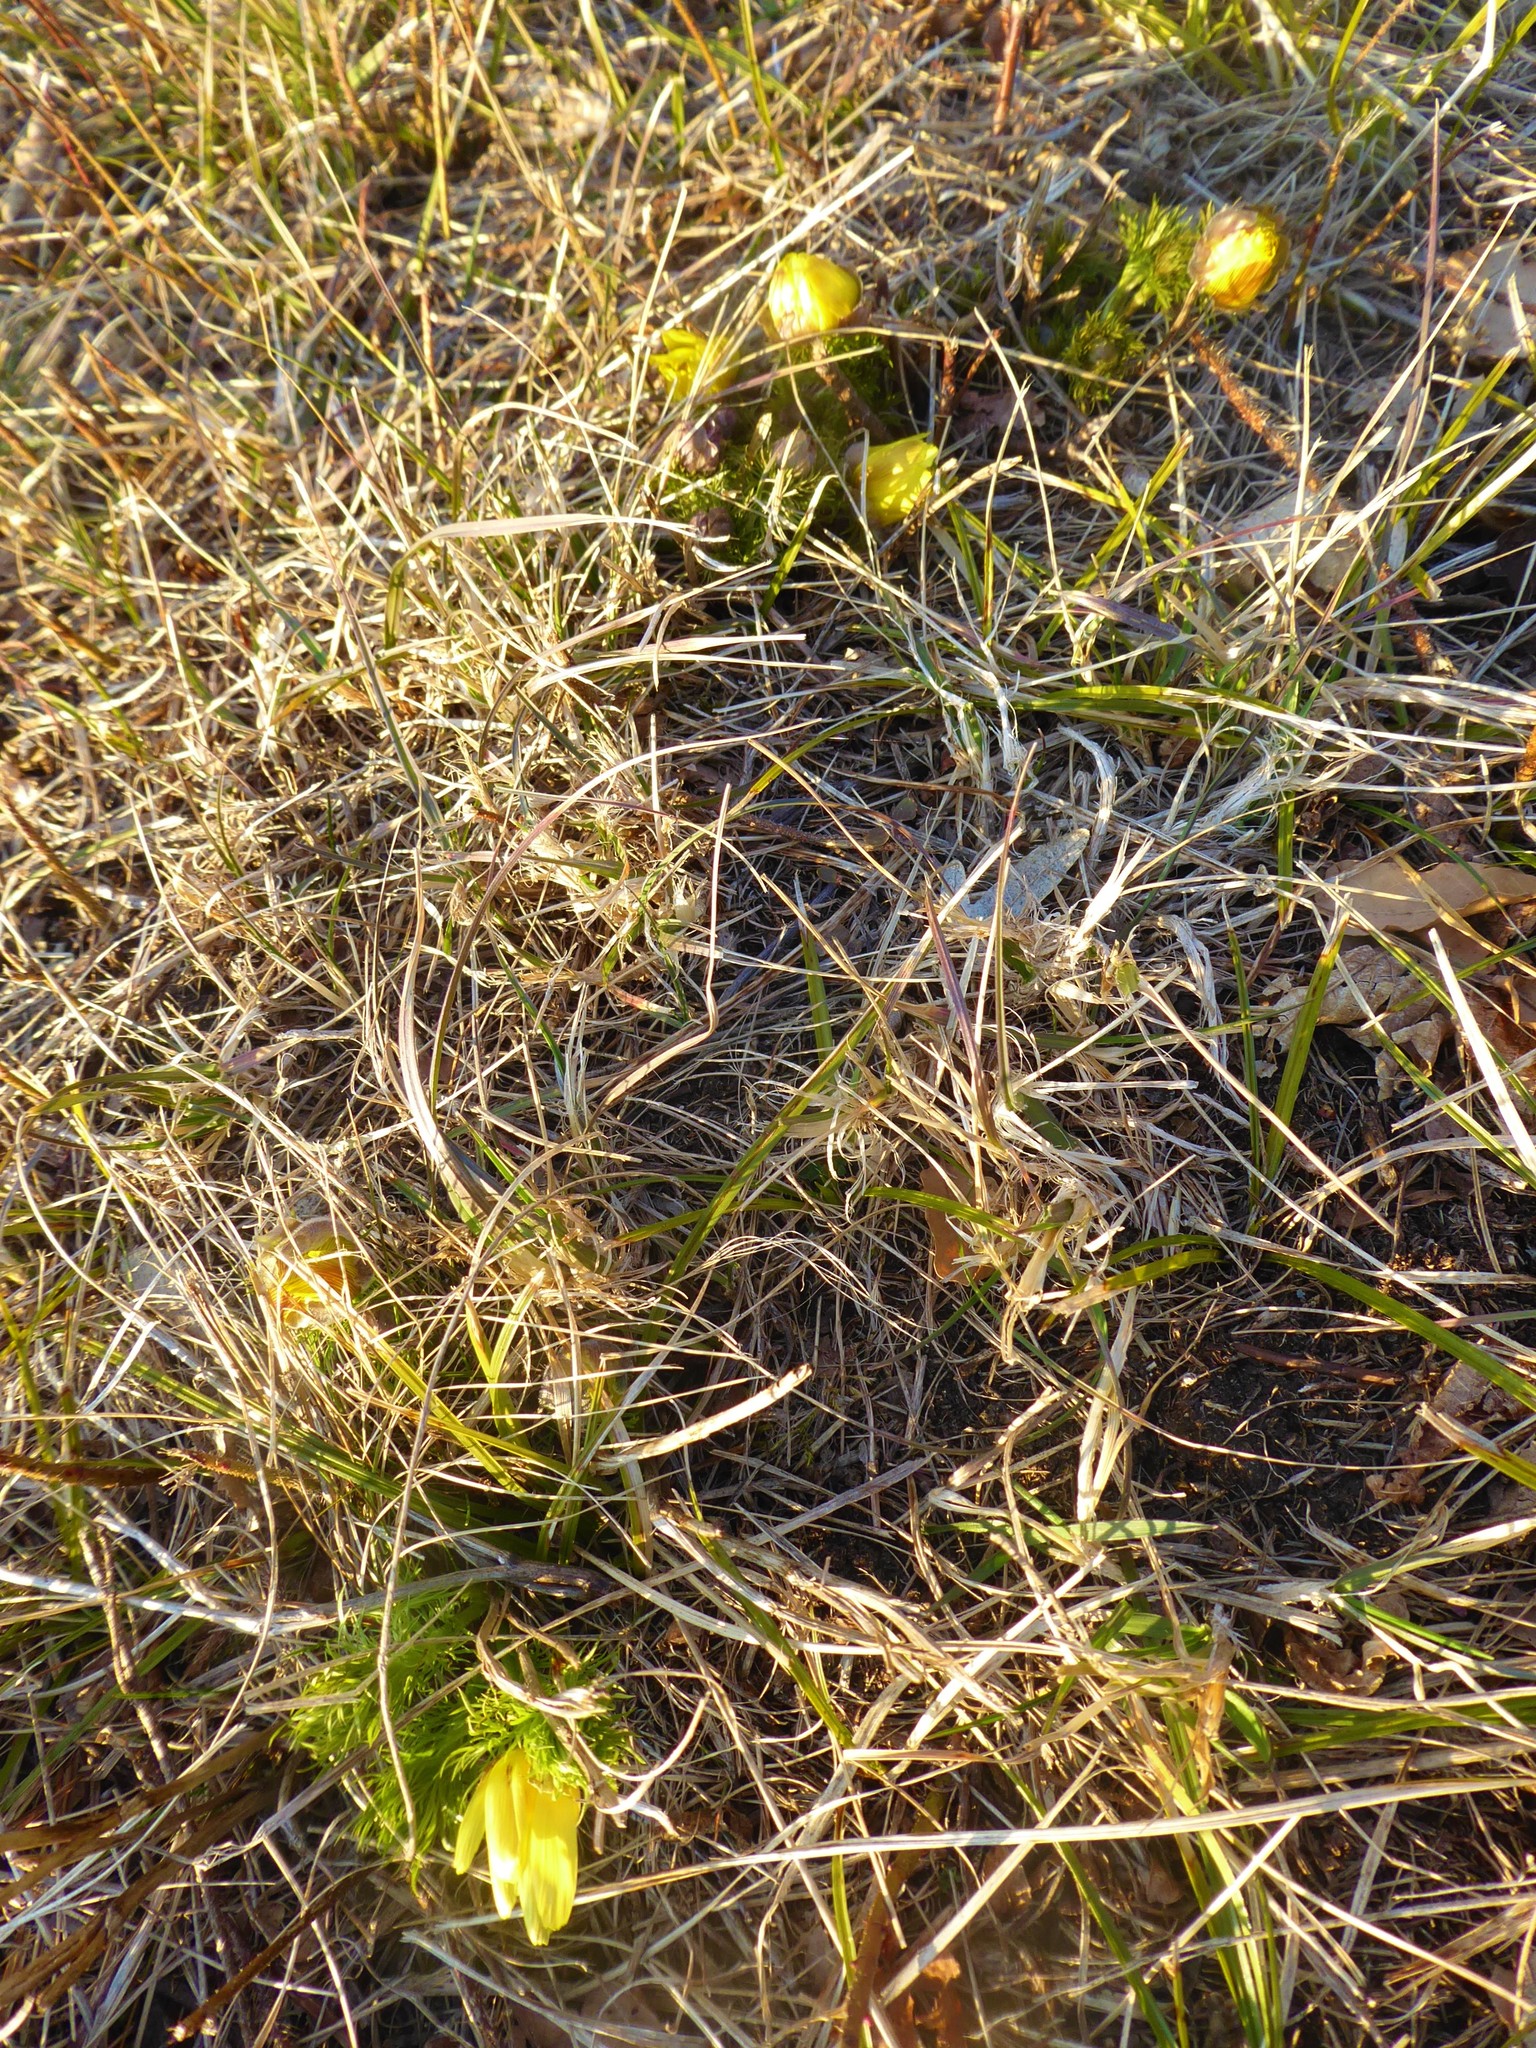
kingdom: Plantae
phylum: Tracheophyta
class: Magnoliopsida
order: Ranunculales
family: Ranunculaceae
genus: Adonis
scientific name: Adonis vernalis
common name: Yellow pheasants-eye
